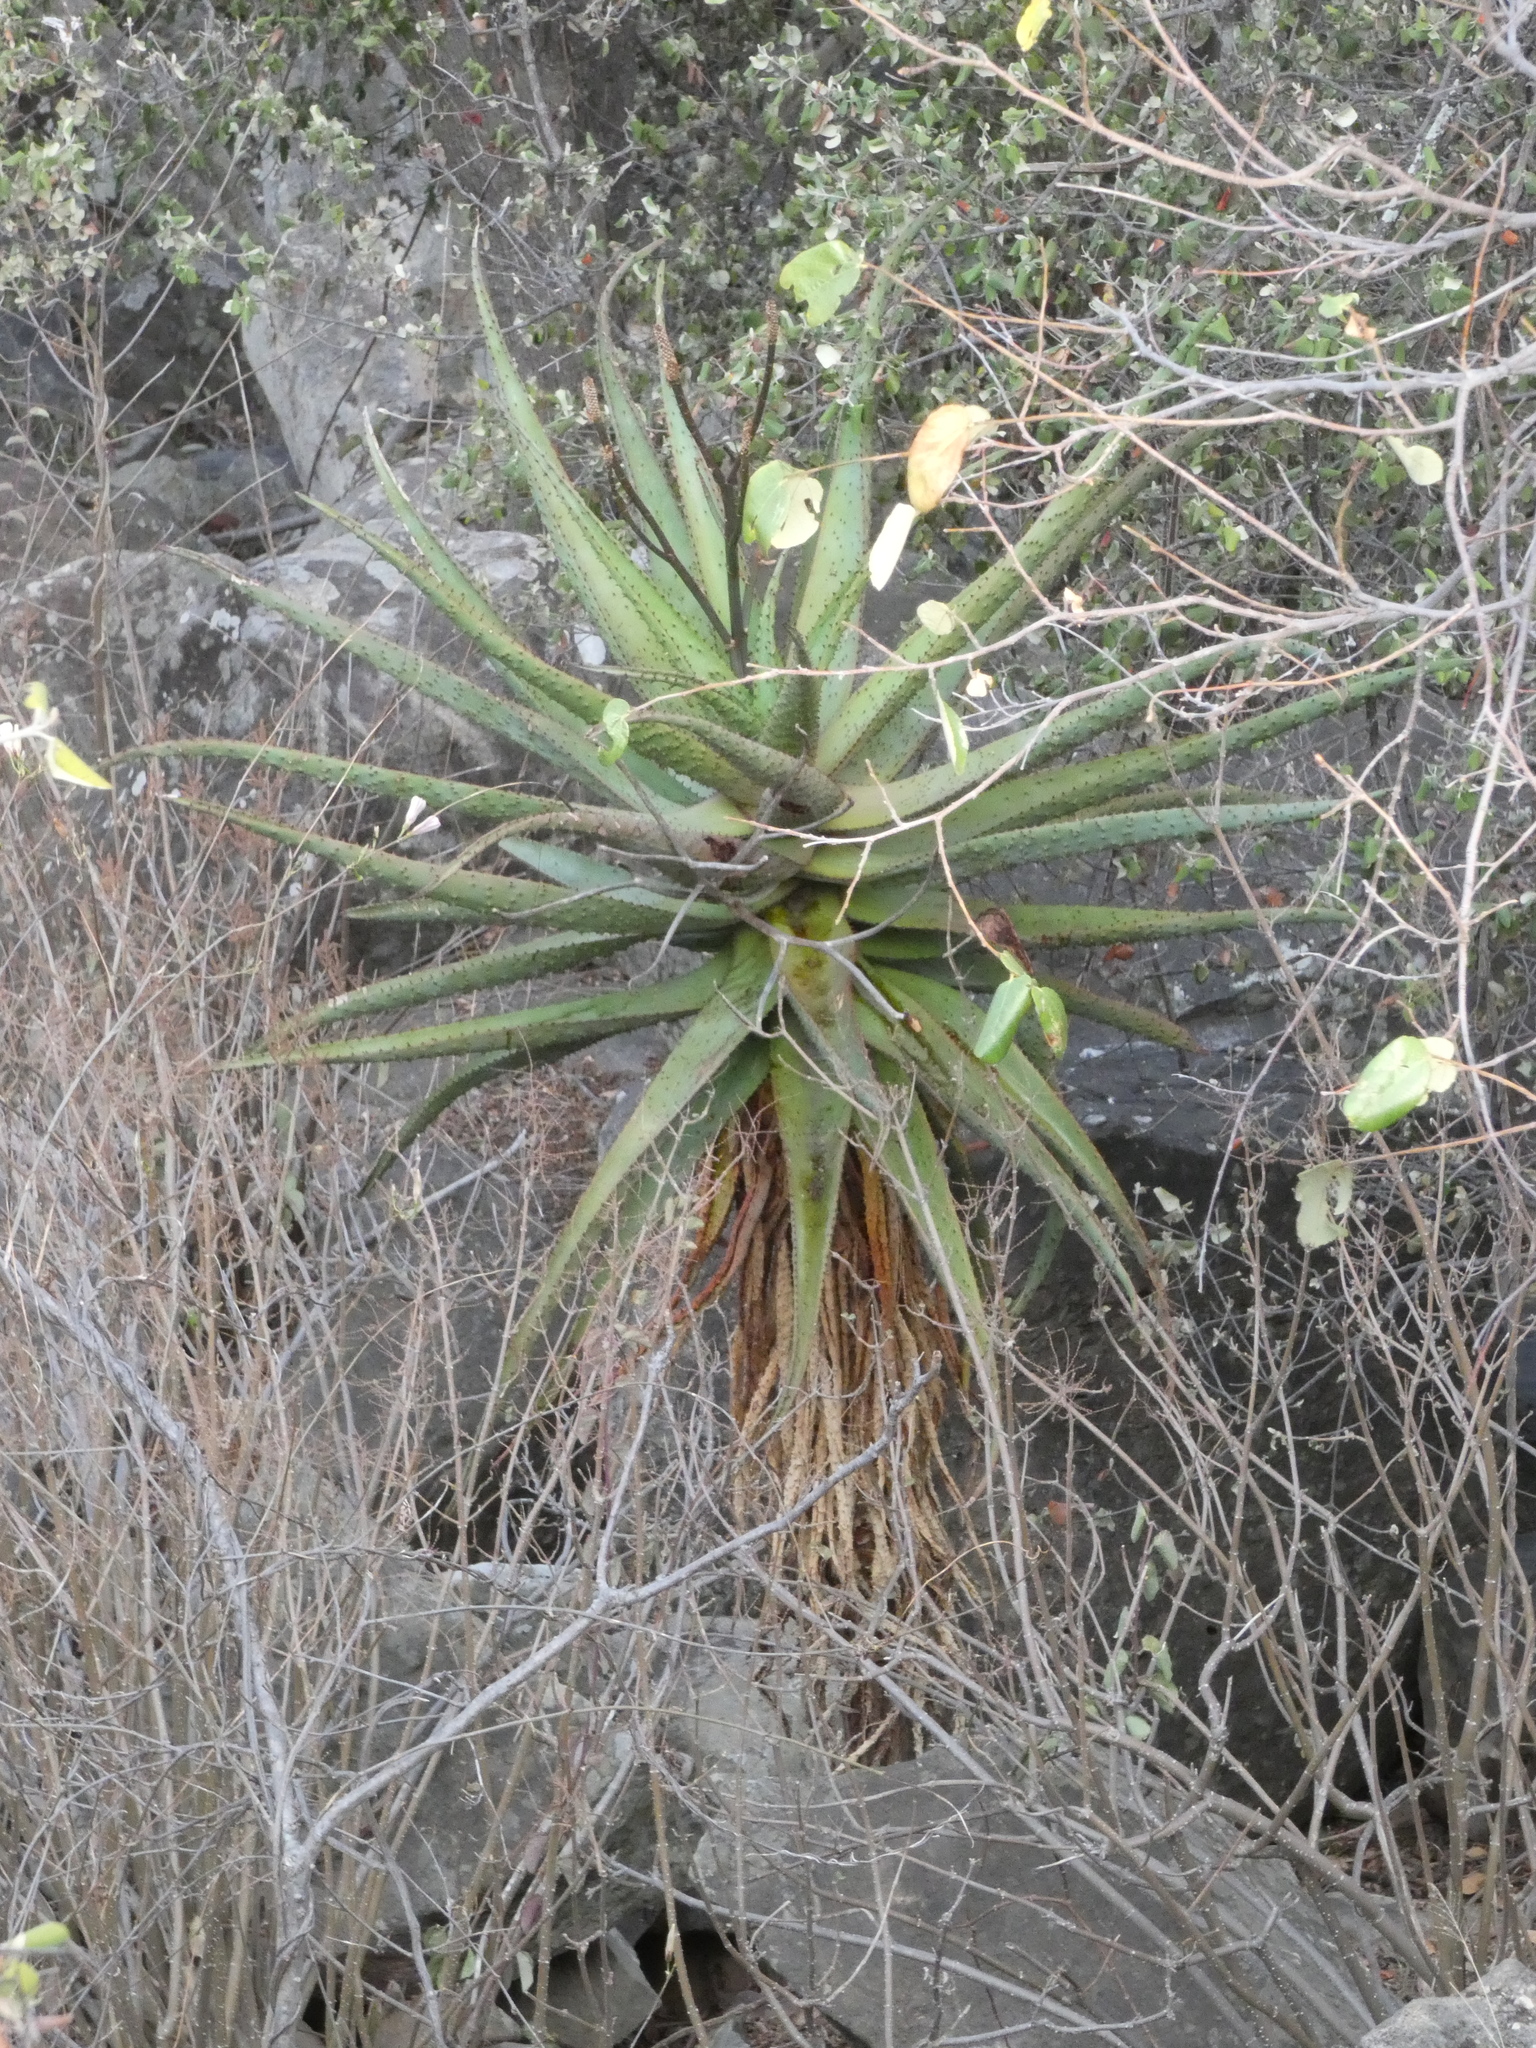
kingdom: Plantae
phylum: Tracheophyta
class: Liliopsida
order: Asparagales
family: Asphodelaceae
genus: Aloe
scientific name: Aloe excelsa
